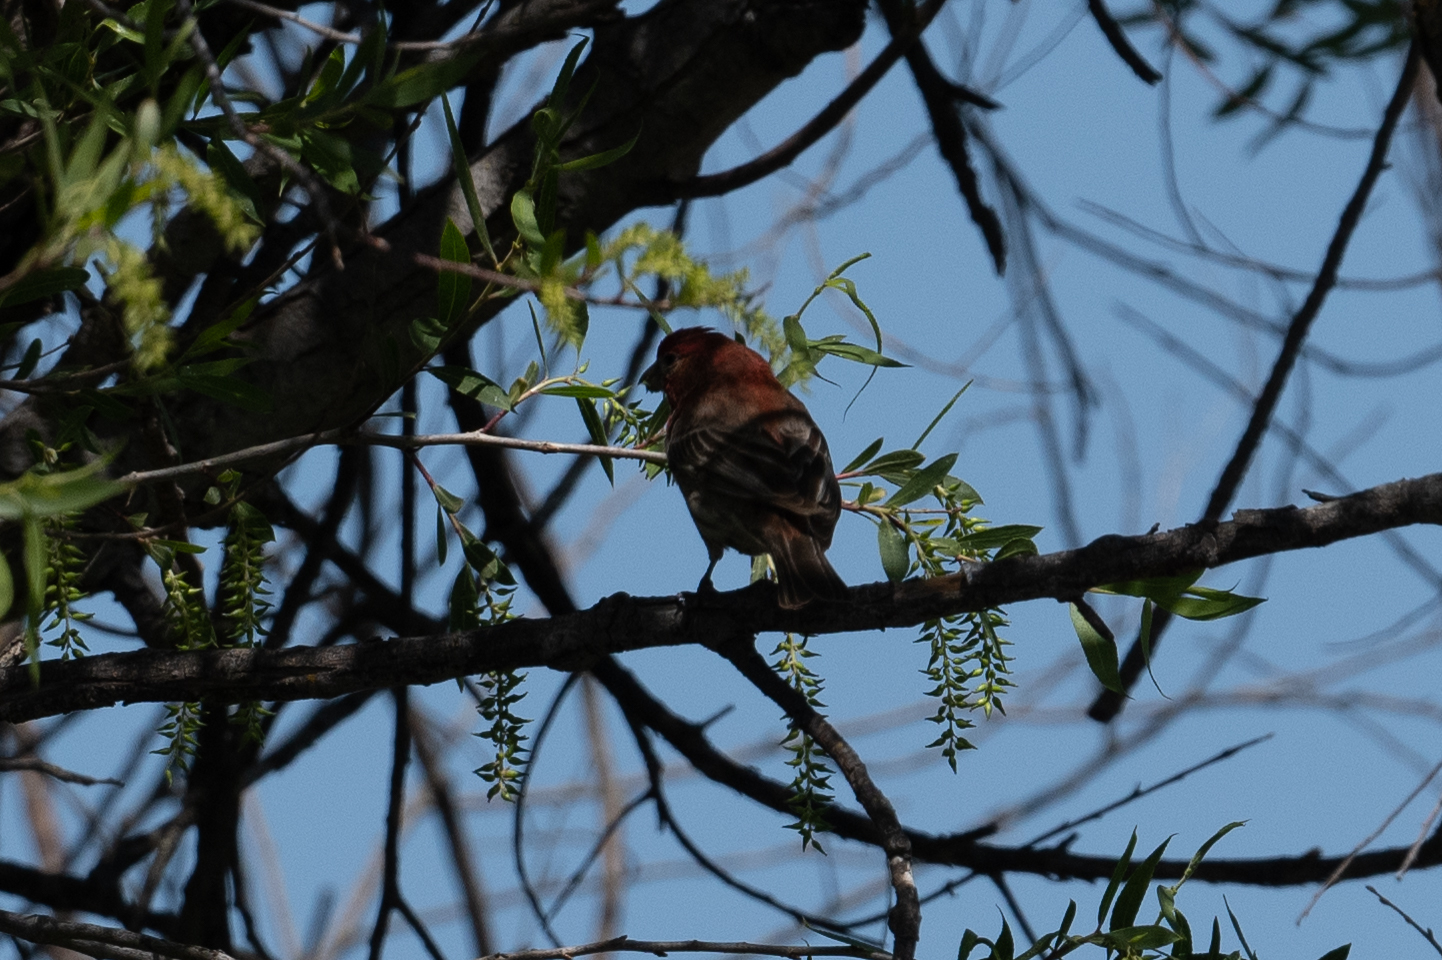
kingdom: Animalia
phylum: Chordata
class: Aves
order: Passeriformes
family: Fringillidae
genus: Haemorhous
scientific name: Haemorhous mexicanus
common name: House finch
